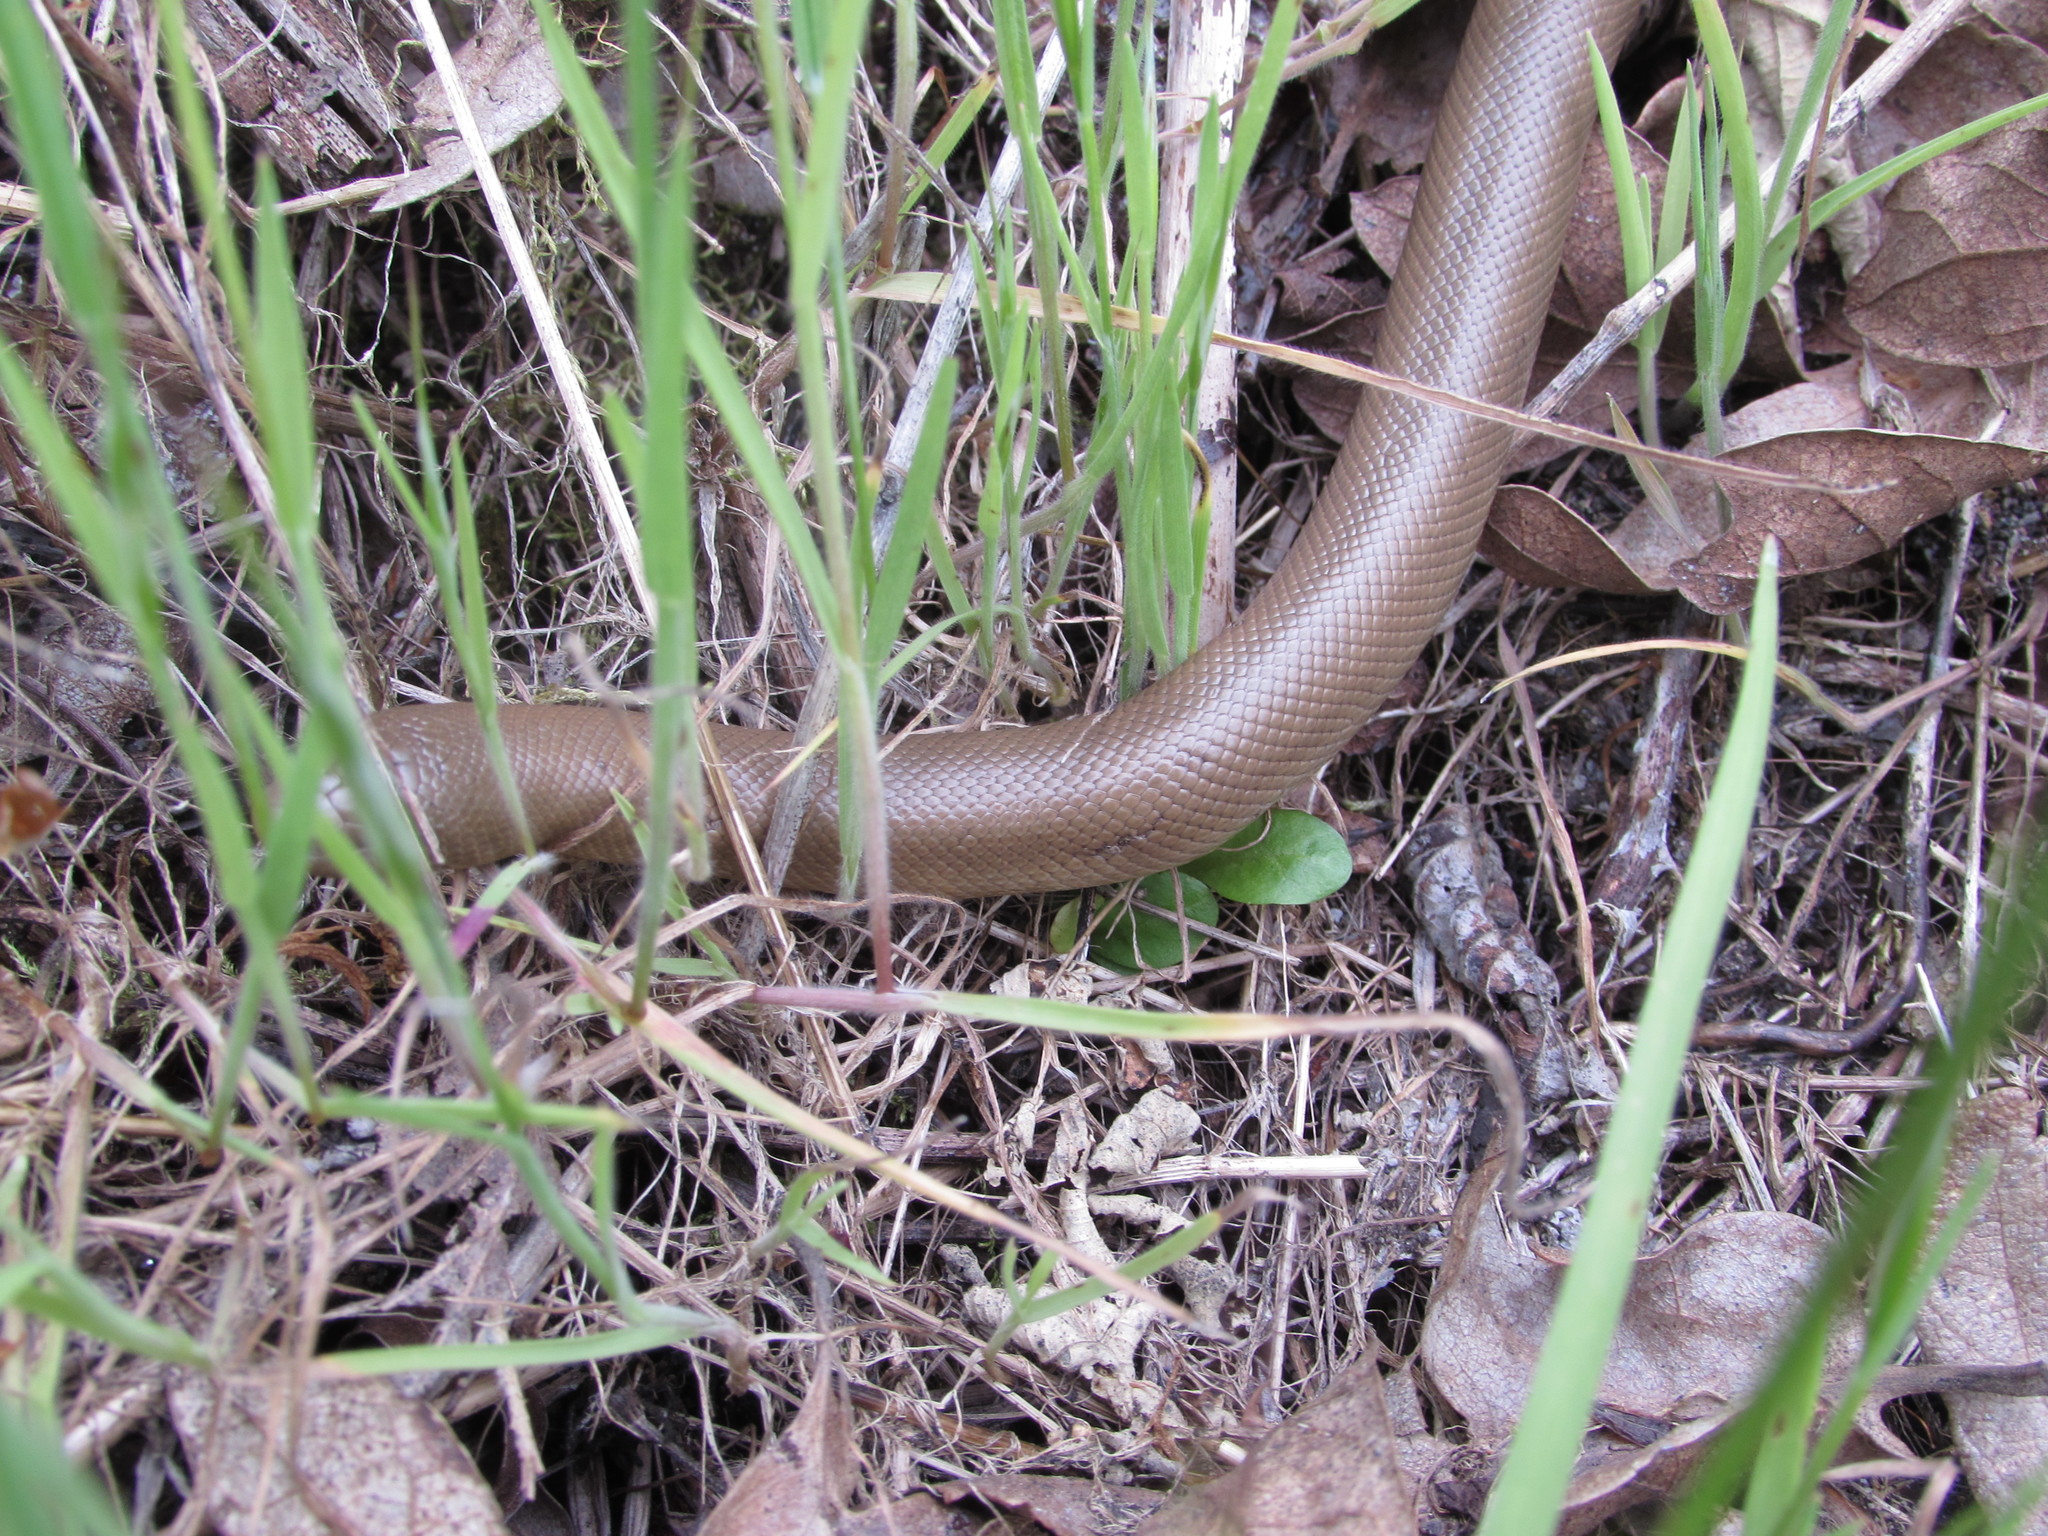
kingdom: Animalia
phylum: Chordata
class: Squamata
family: Boidae
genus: Charina
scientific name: Charina bottae
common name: Northern rubber boa
